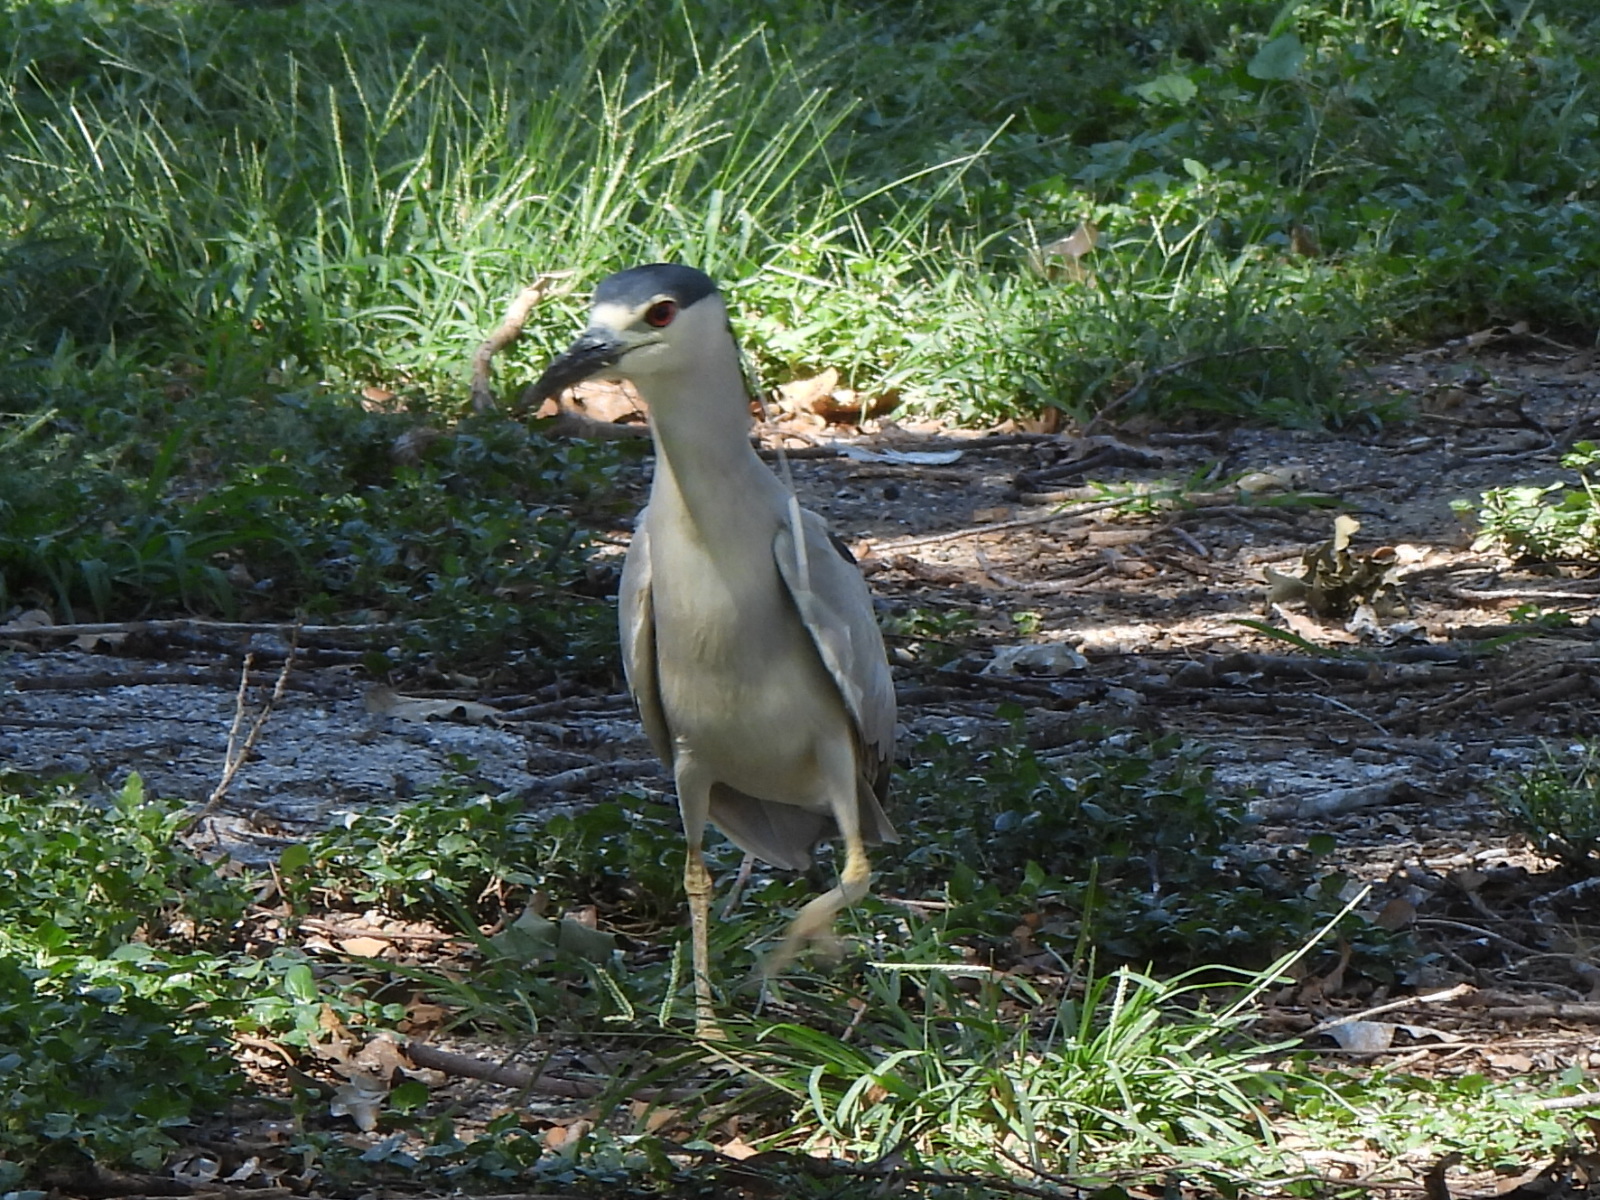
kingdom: Animalia
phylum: Chordata
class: Aves
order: Pelecaniformes
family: Ardeidae
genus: Nycticorax
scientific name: Nycticorax nycticorax
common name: Black-crowned night heron
